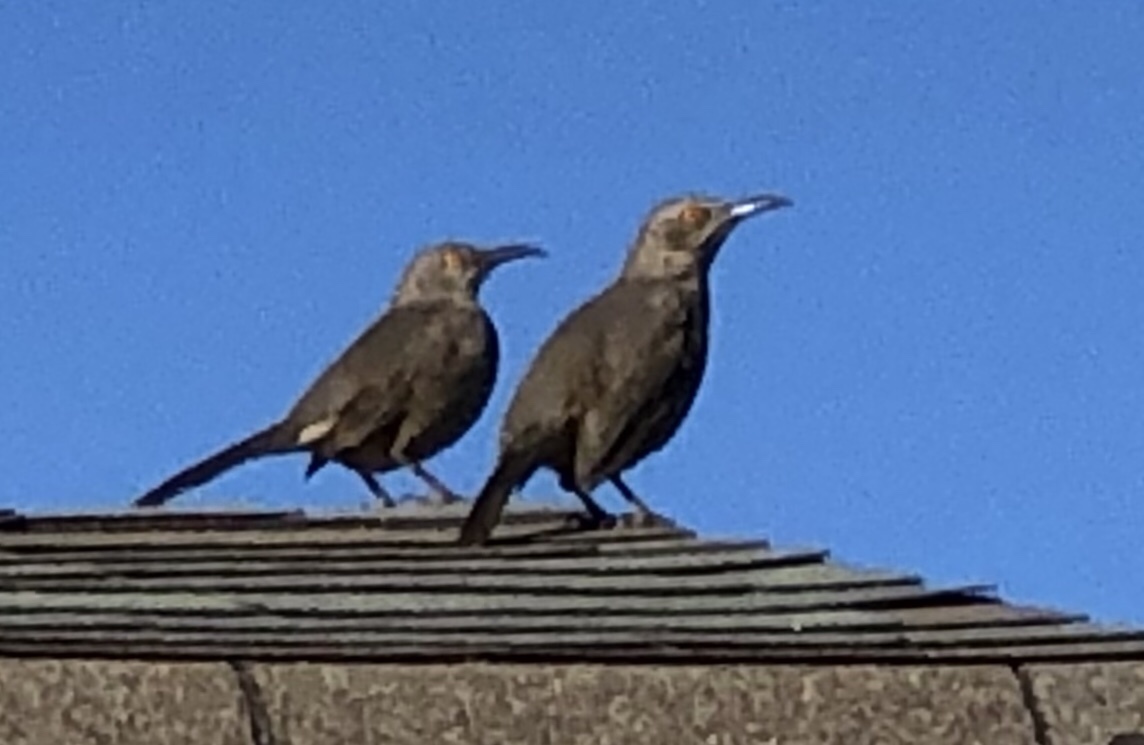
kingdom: Animalia
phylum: Chordata
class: Aves
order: Passeriformes
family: Mimidae
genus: Toxostoma
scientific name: Toxostoma curvirostre
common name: Curve-billed thrasher
